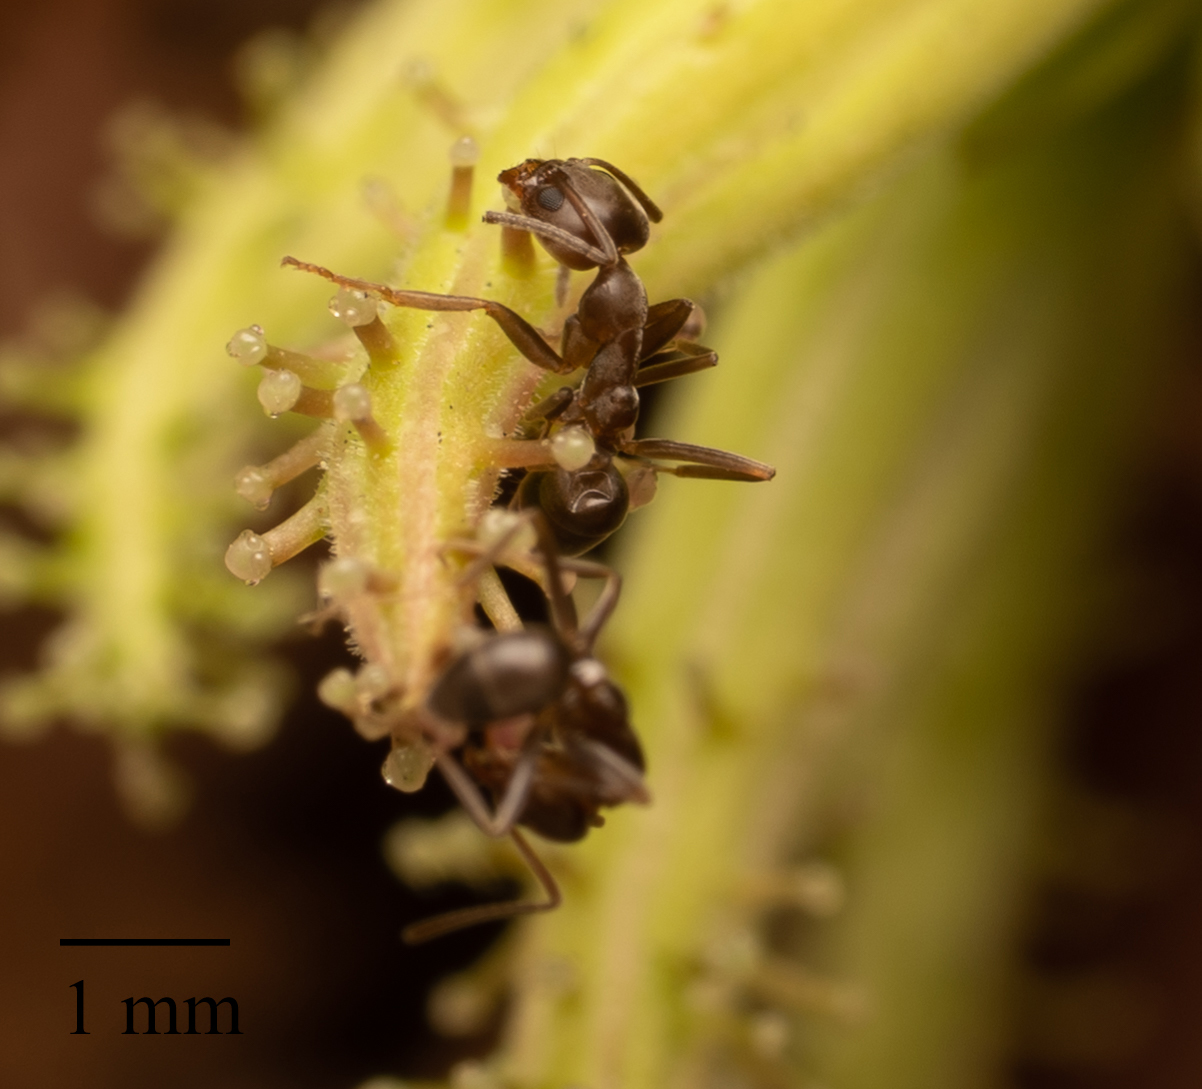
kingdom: Animalia
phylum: Arthropoda
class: Insecta
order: Hymenoptera
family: Formicidae
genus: Linepithema
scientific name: Linepithema humile
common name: Argentine ant
